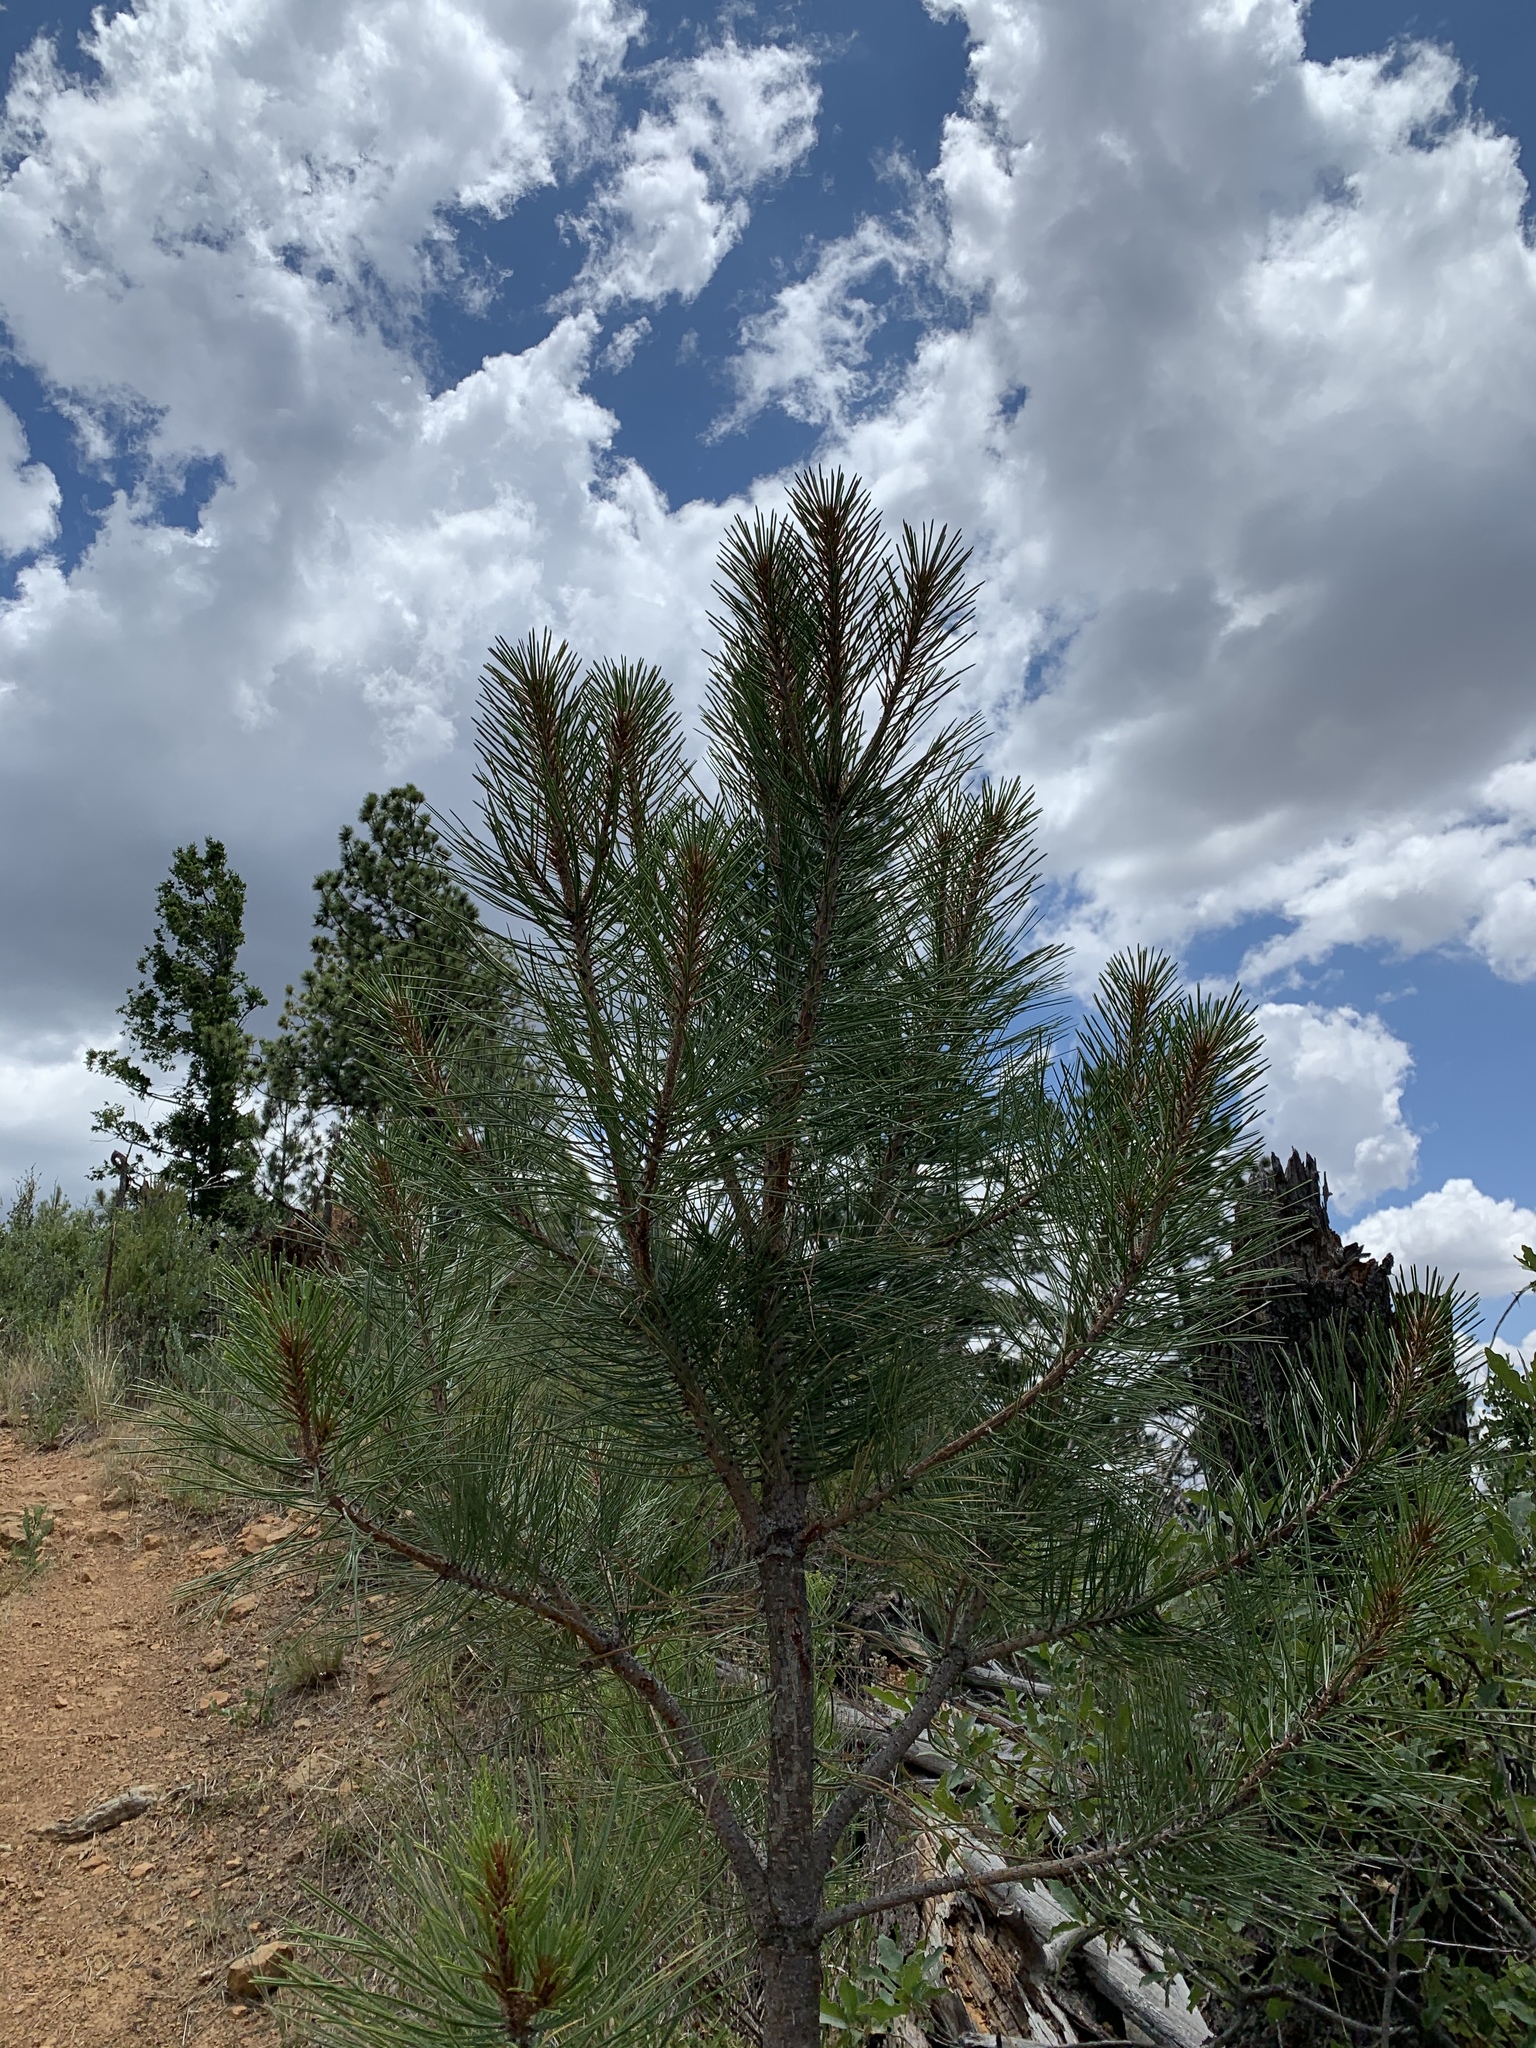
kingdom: Plantae
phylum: Tracheophyta
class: Pinopsida
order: Pinales
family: Pinaceae
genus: Pinus
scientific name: Pinus ponderosa
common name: Western yellow-pine
